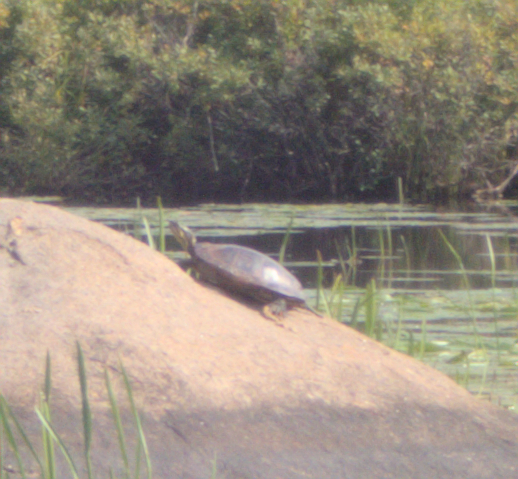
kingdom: Animalia
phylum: Chordata
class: Testudines
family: Emydidae
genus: Chrysemys
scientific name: Chrysemys picta
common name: Painted turtle
